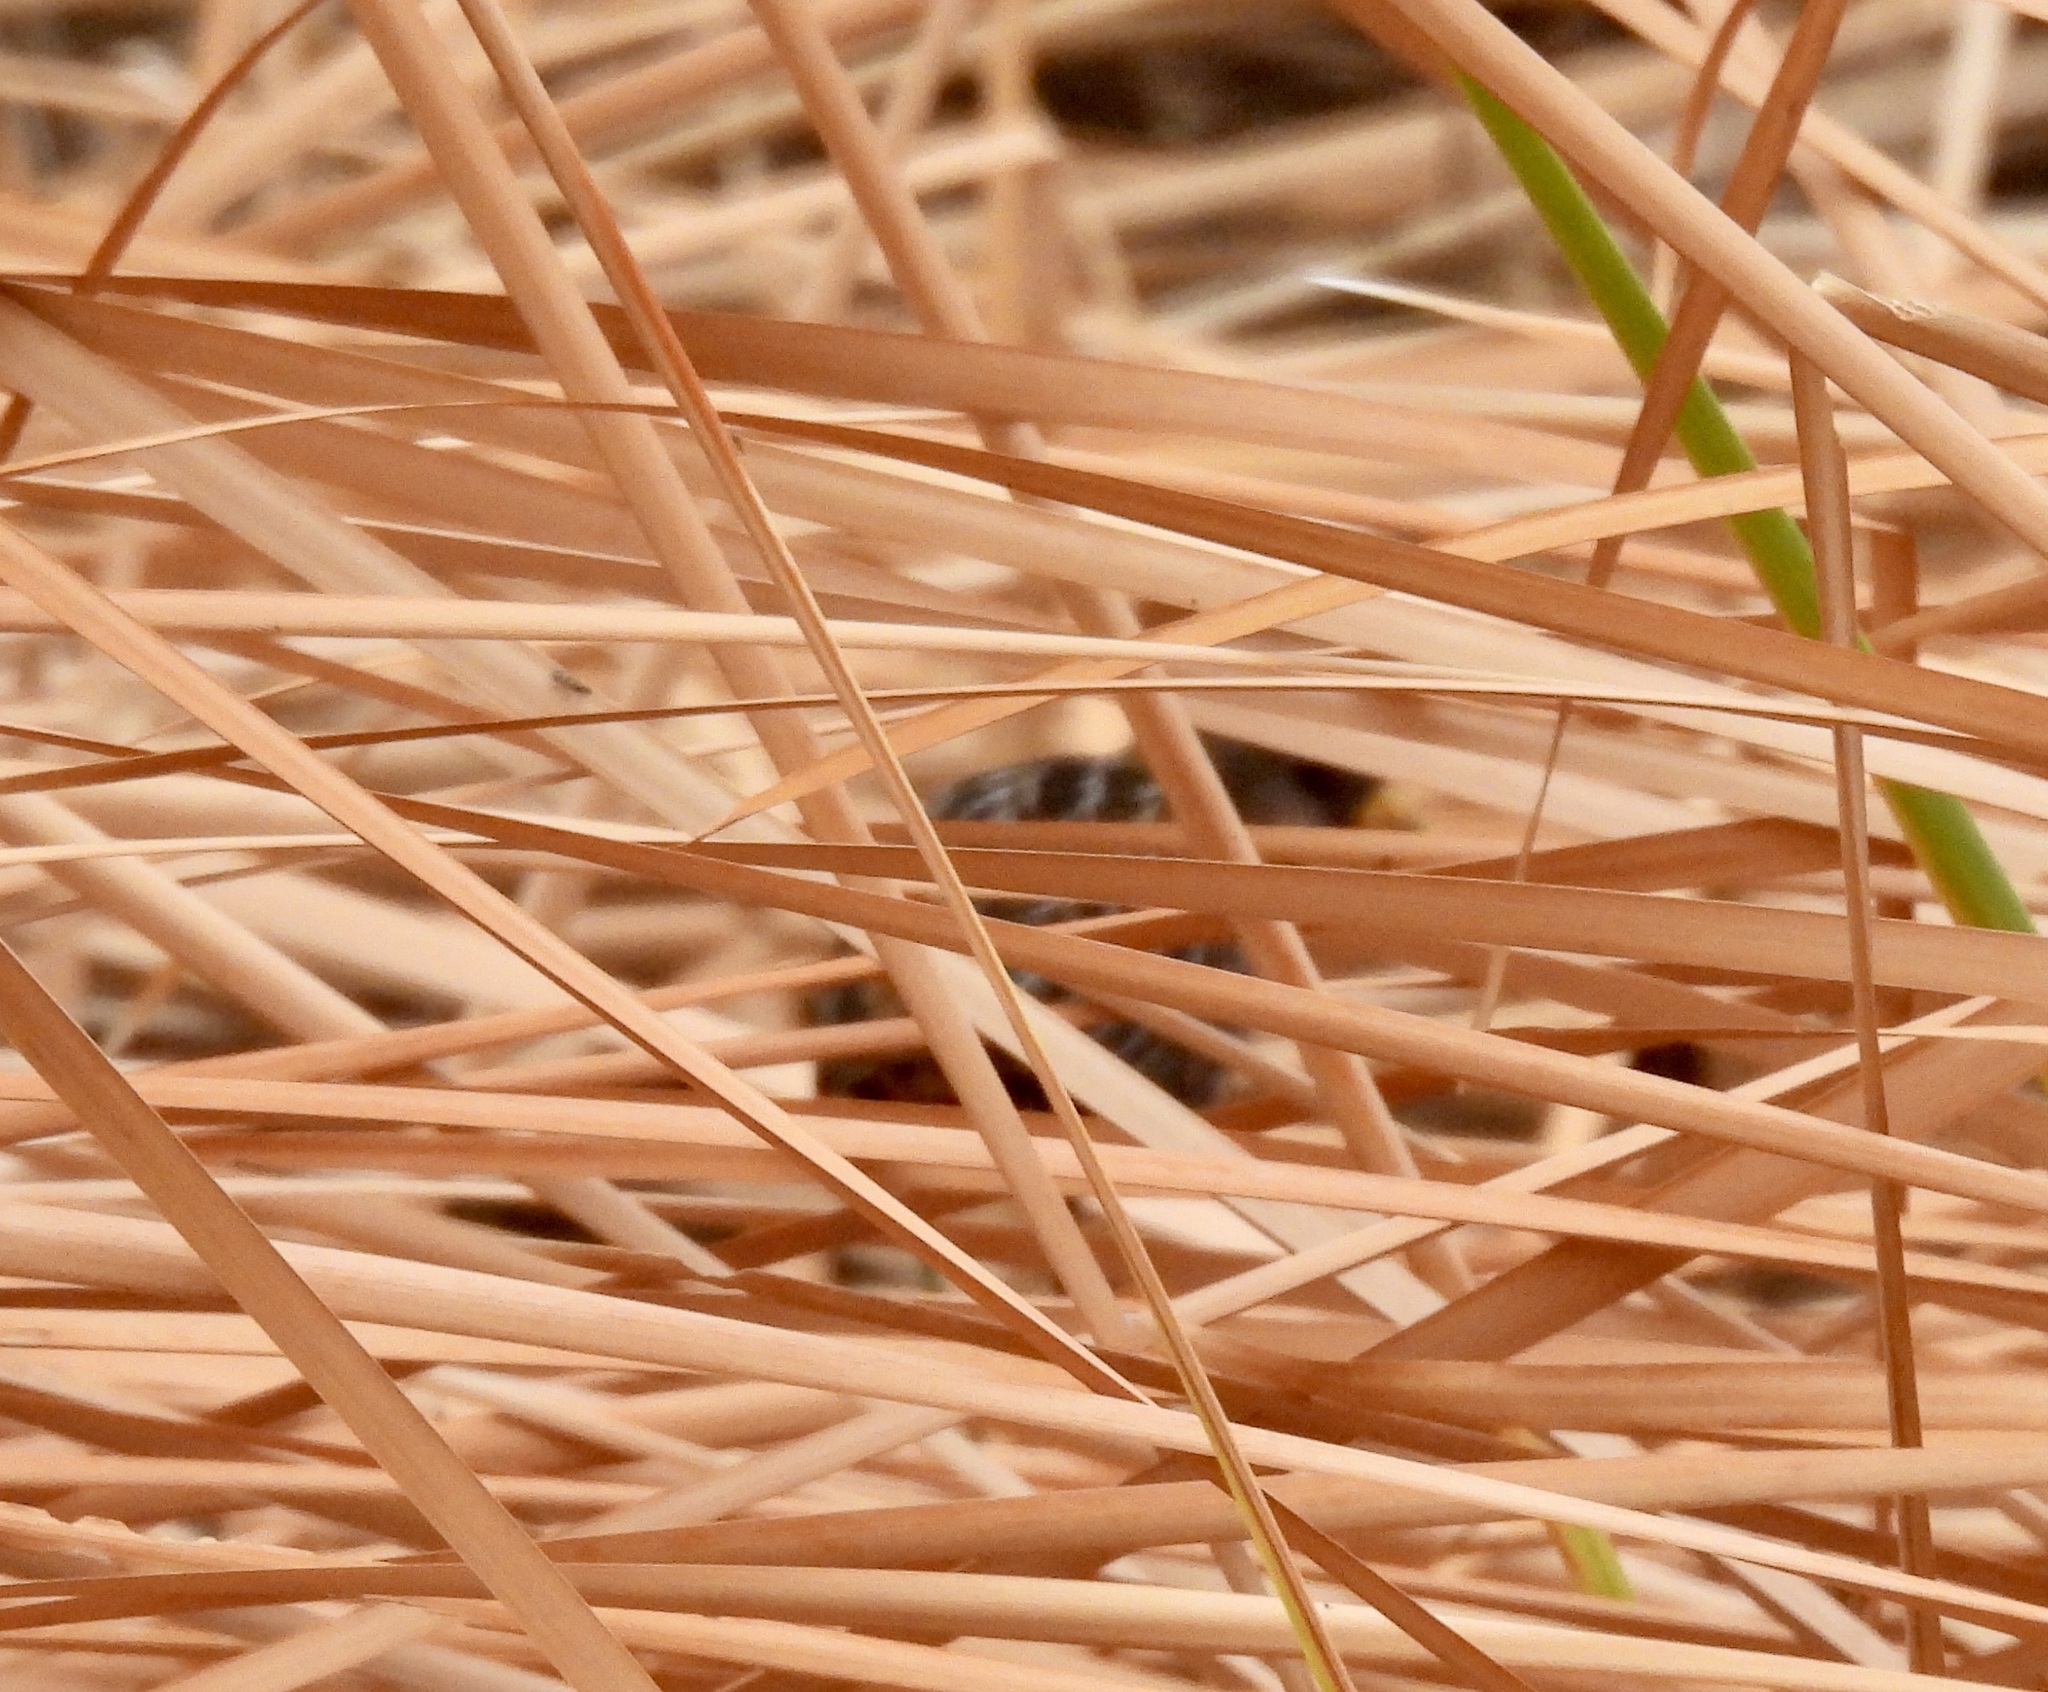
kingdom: Animalia
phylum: Chordata
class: Aves
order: Gruiformes
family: Rallidae
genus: Porzana
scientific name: Porzana carolina
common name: Sora
